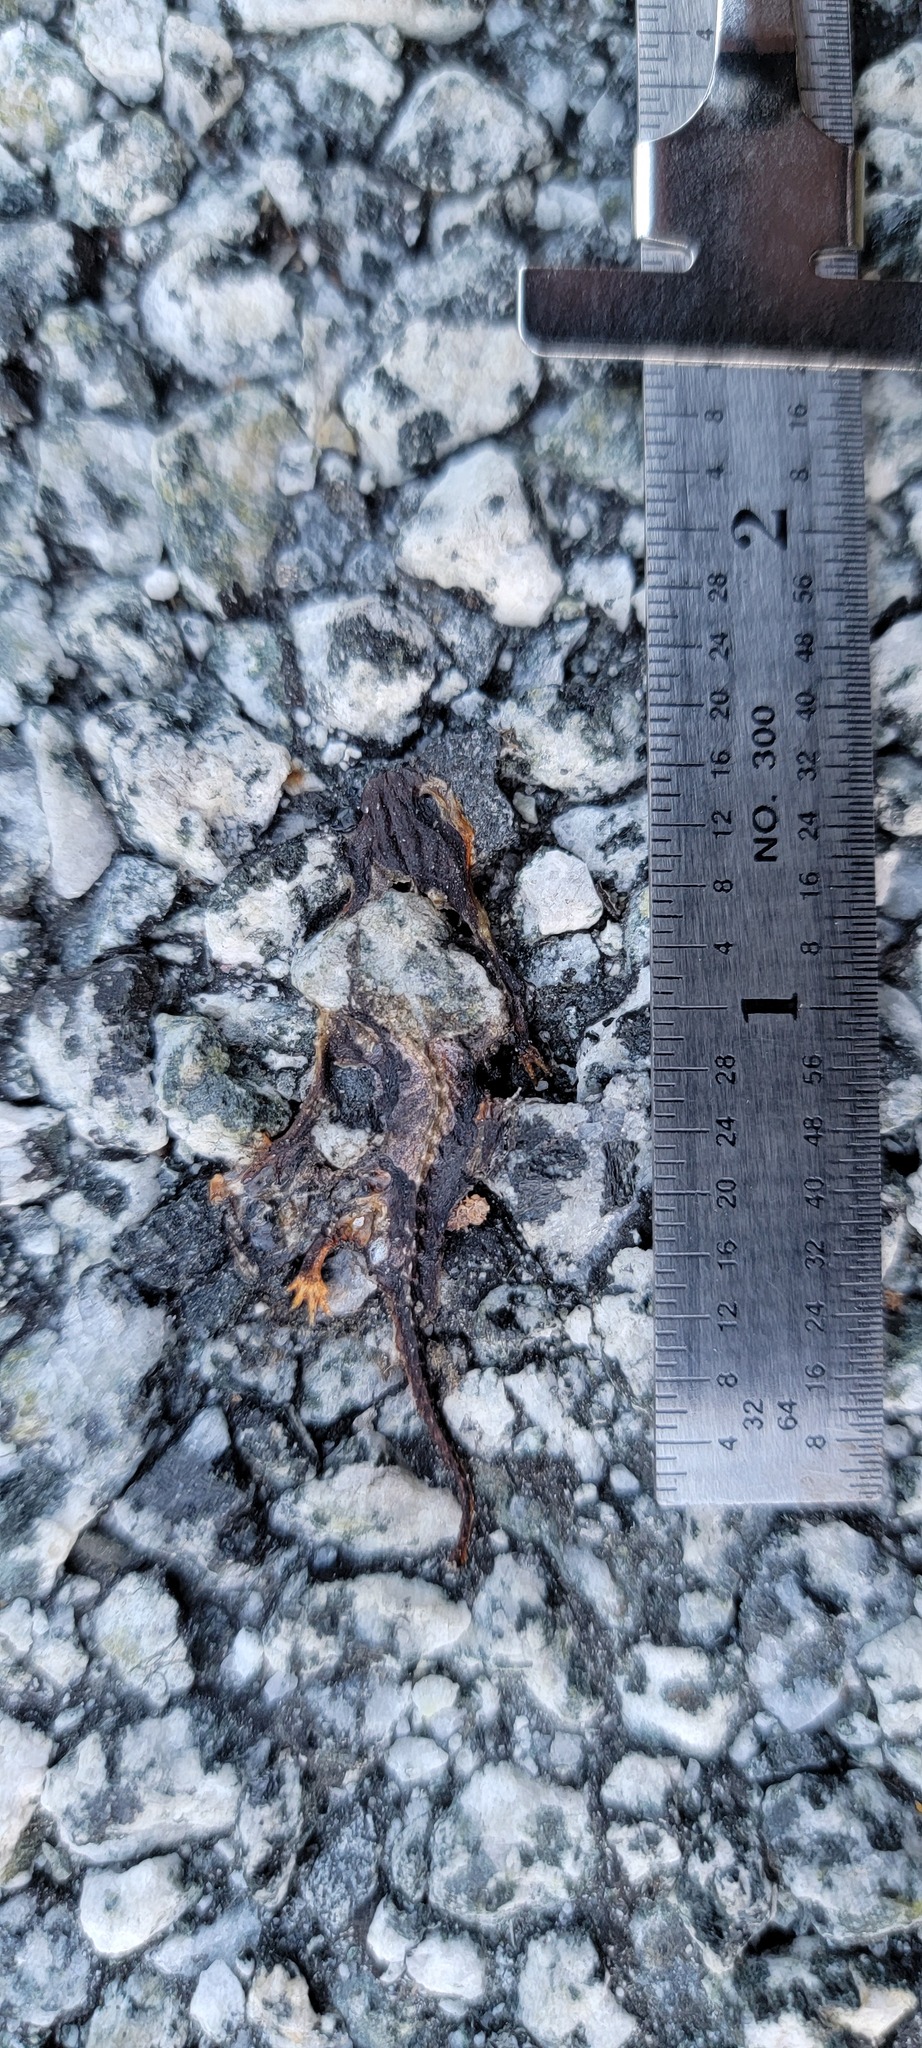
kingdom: Animalia
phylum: Chordata
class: Amphibia
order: Caudata
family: Salamandridae
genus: Taricha
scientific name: Taricha
